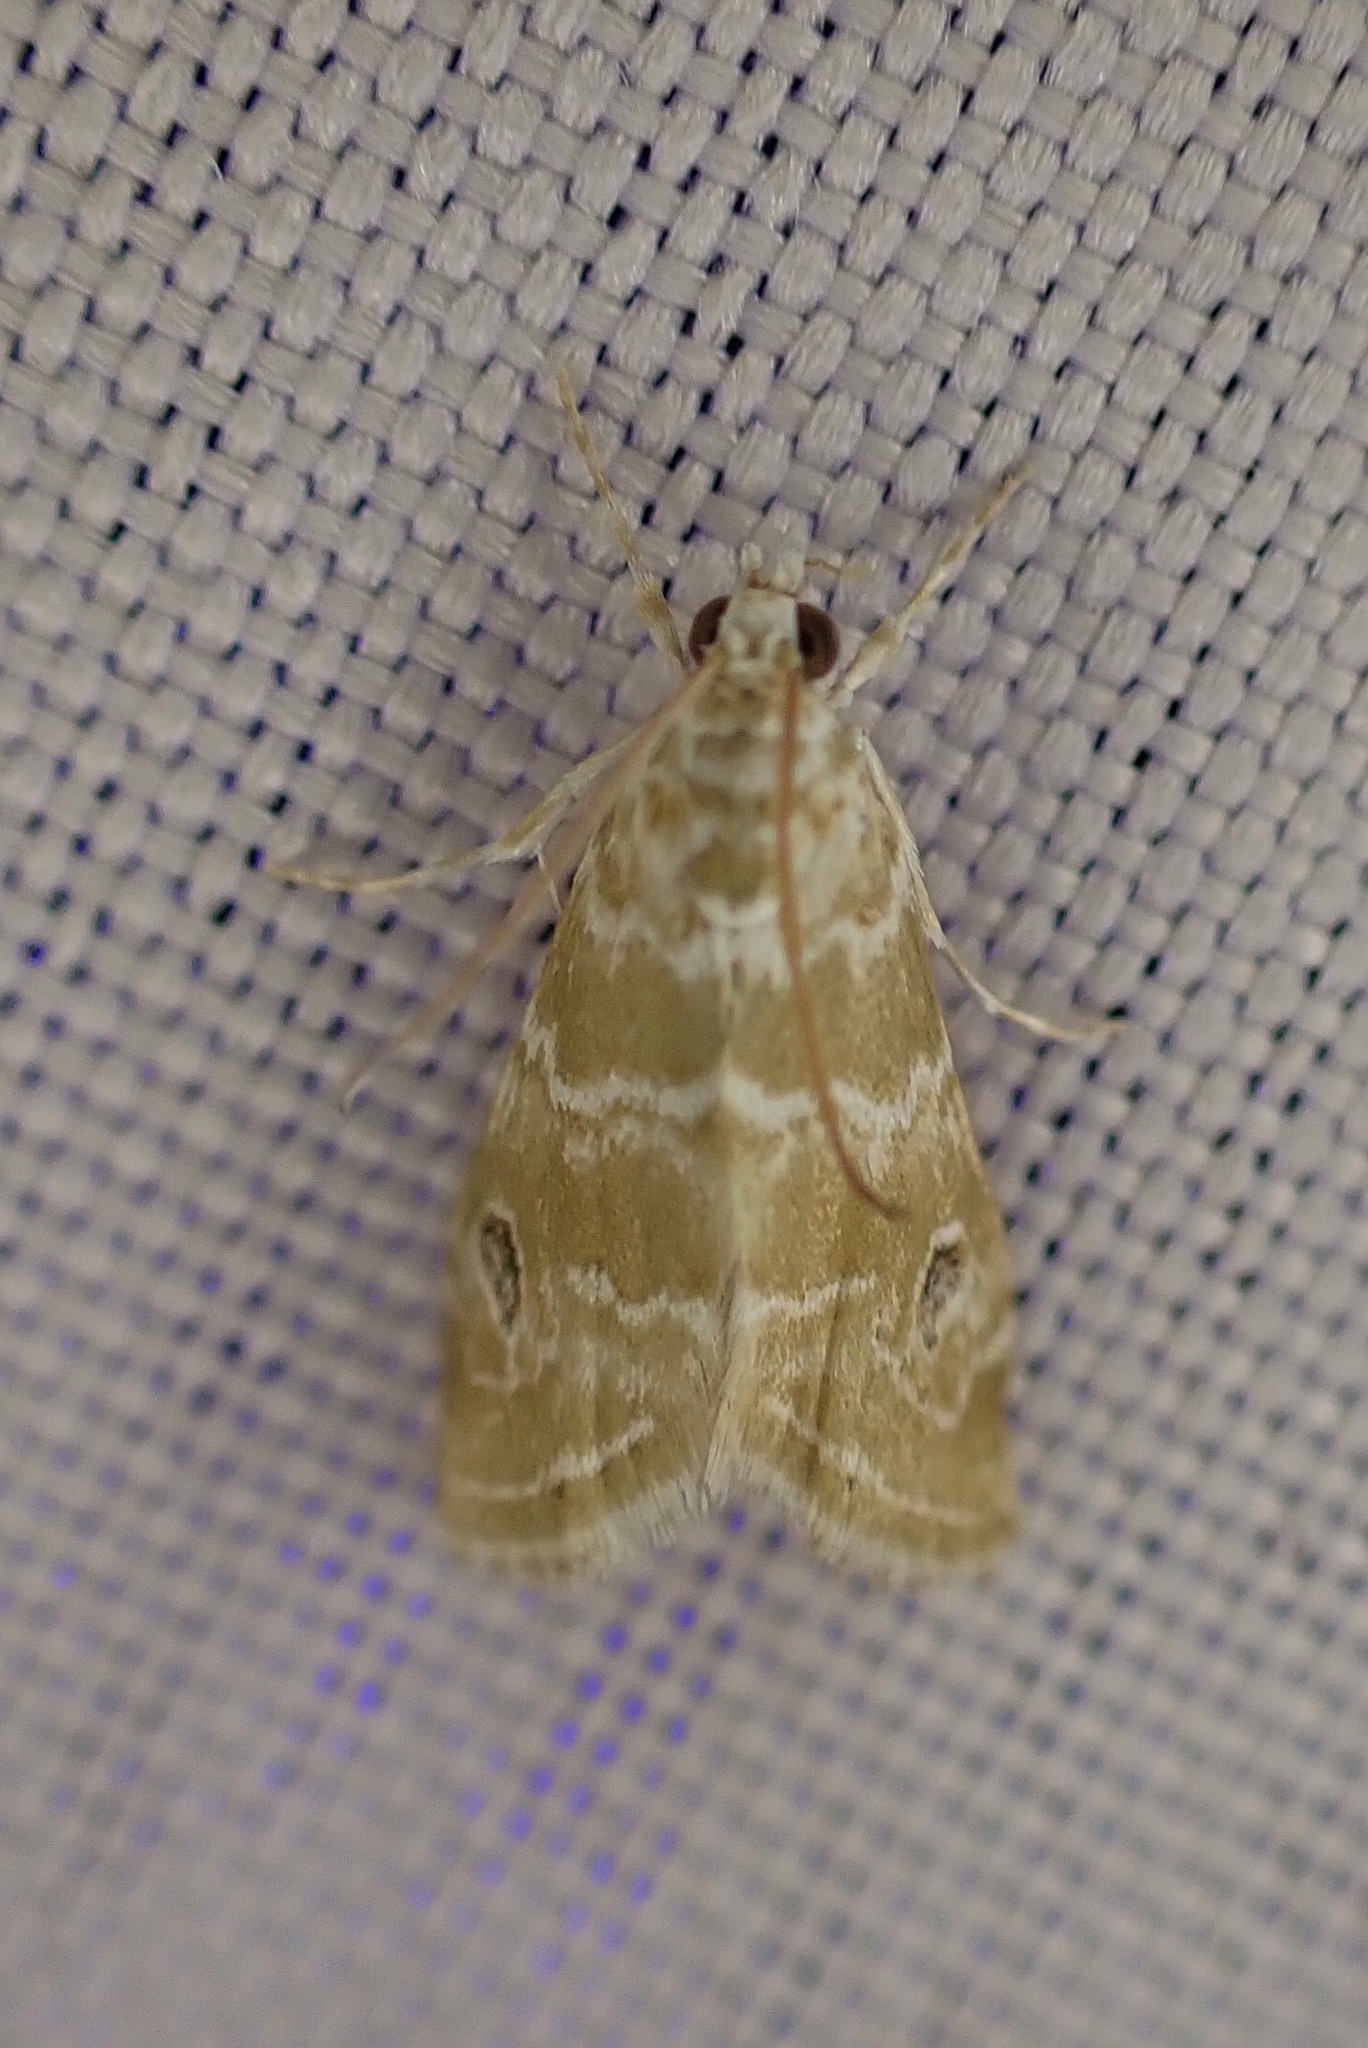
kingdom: Animalia
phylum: Arthropoda
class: Insecta
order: Lepidoptera
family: Crambidae
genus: Hellula
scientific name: Hellula rogatalis
